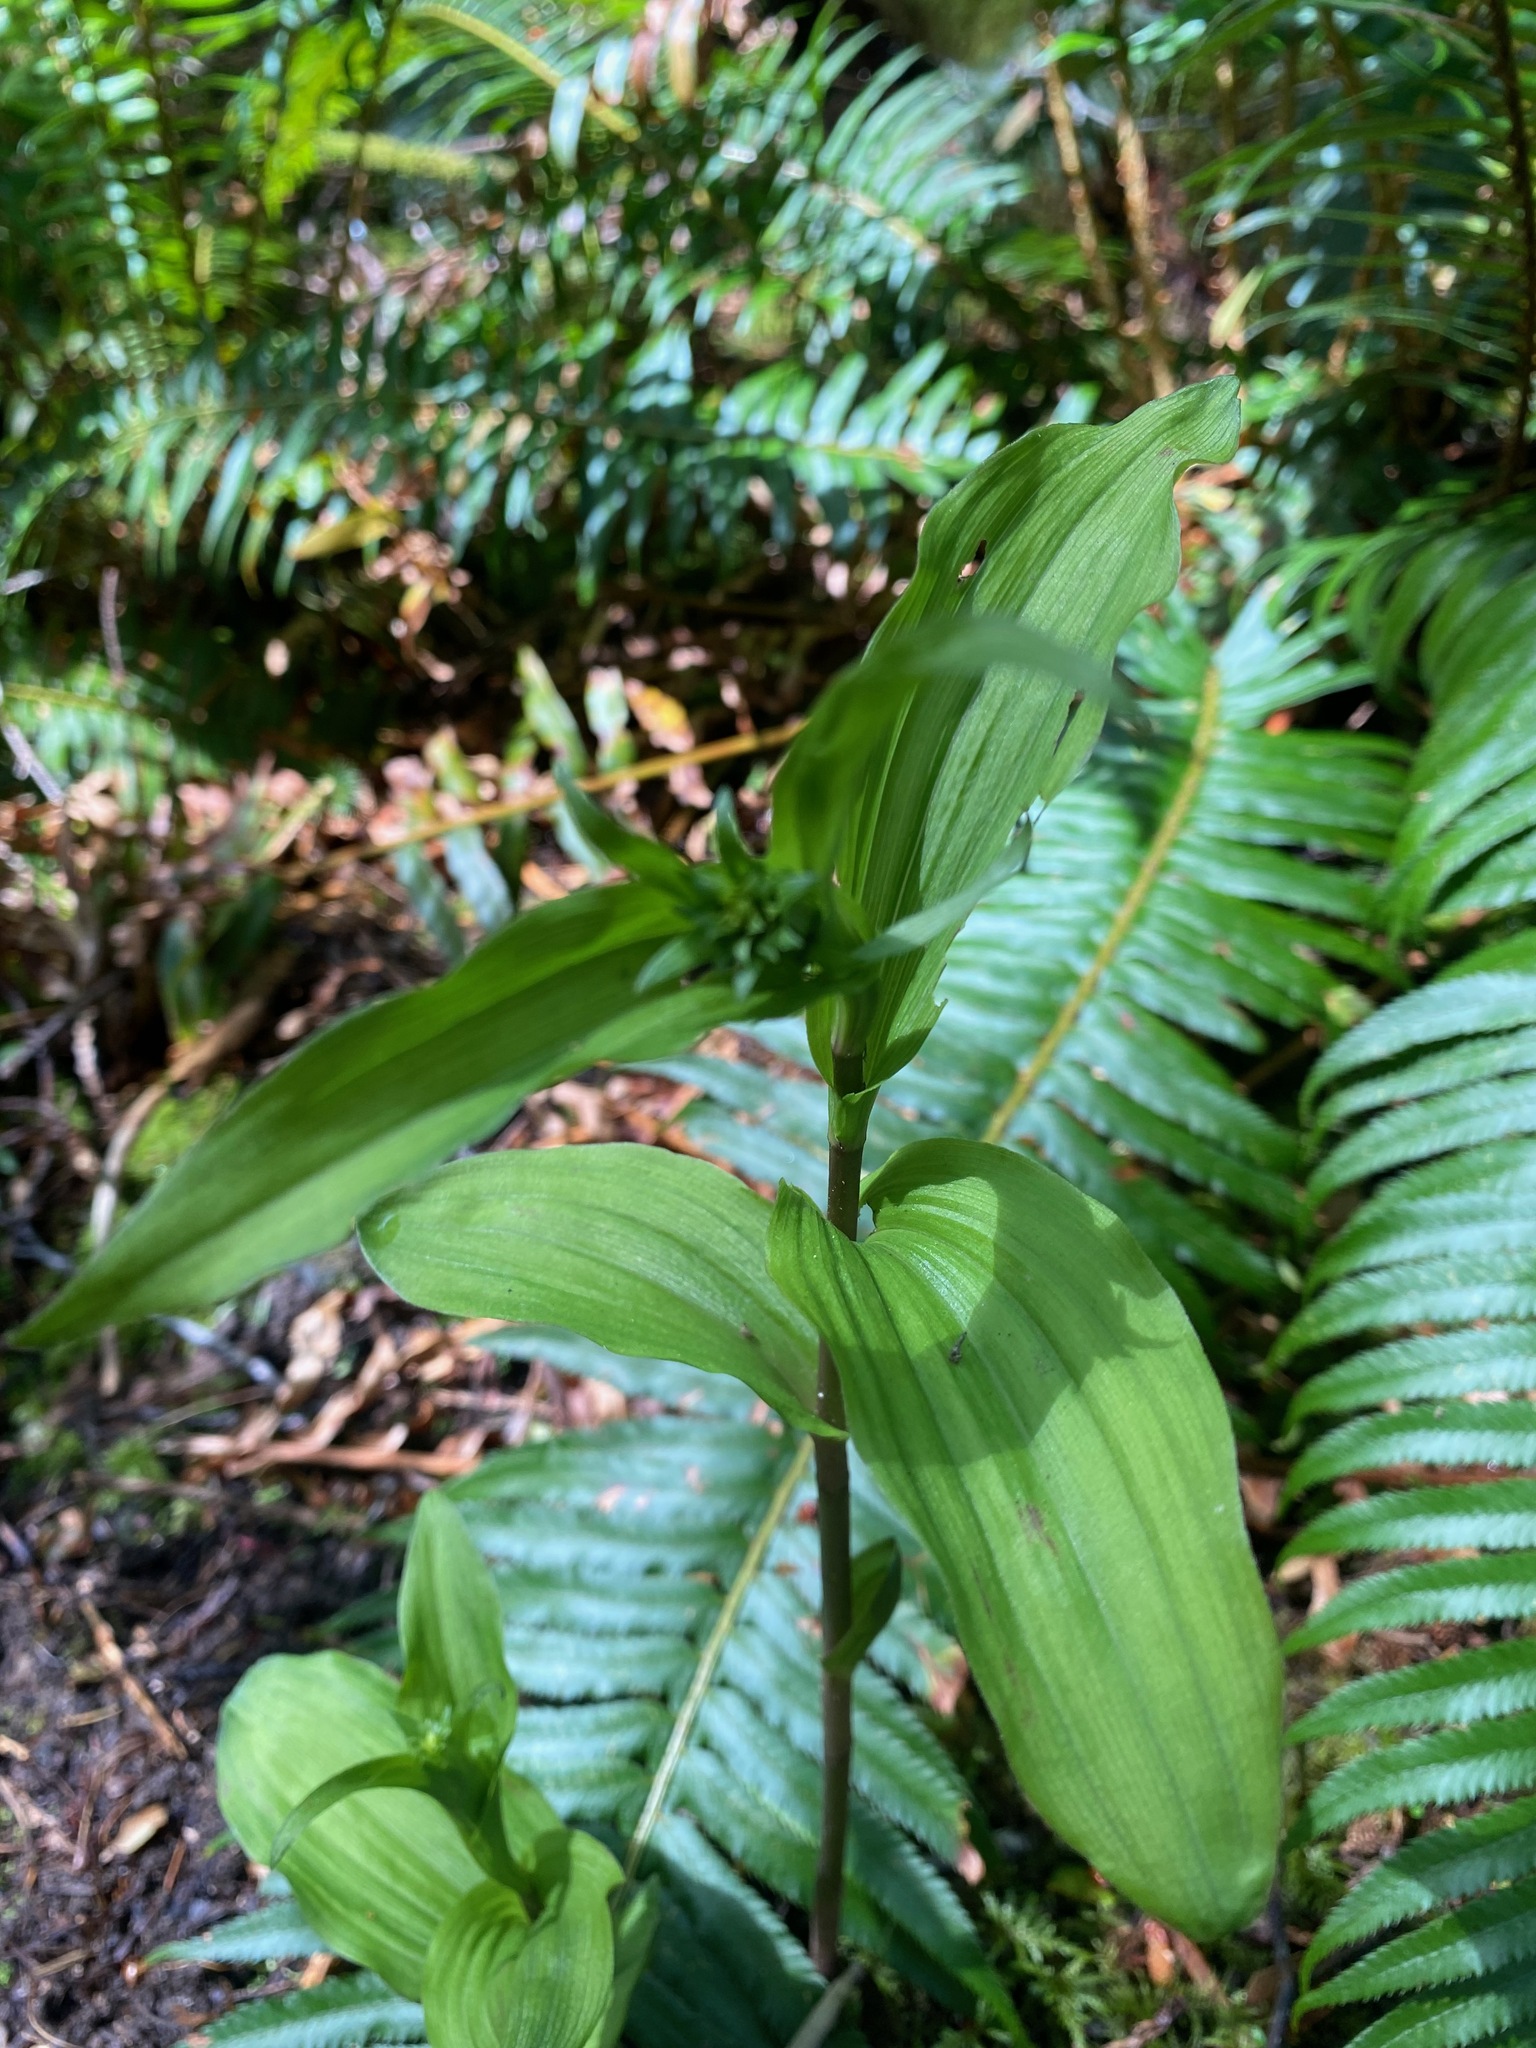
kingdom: Plantae
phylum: Tracheophyta
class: Liliopsida
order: Asparagales
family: Orchidaceae
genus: Epipactis
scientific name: Epipactis helleborine
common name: Broad-leaved helleborine
